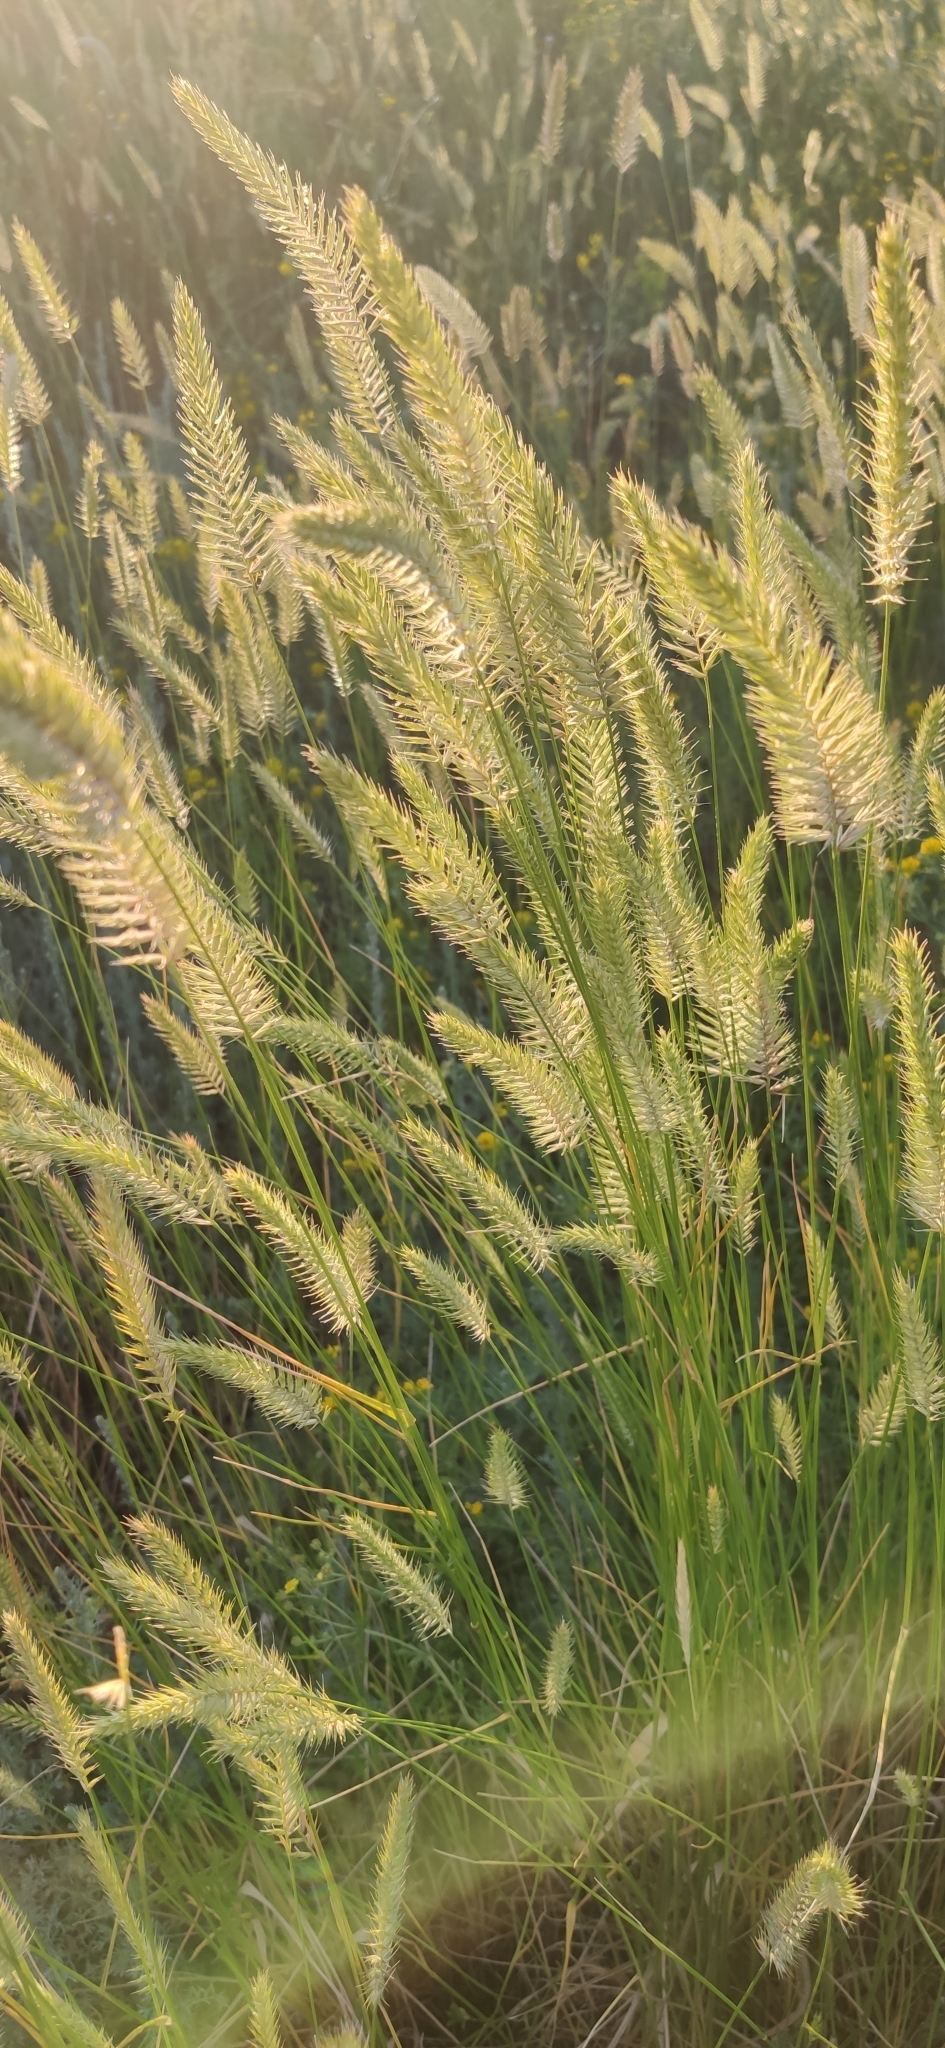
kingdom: Plantae
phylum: Tracheophyta
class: Liliopsida
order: Poales
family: Poaceae
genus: Agropyron
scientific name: Agropyron cristatum
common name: Crested wheatgrass
